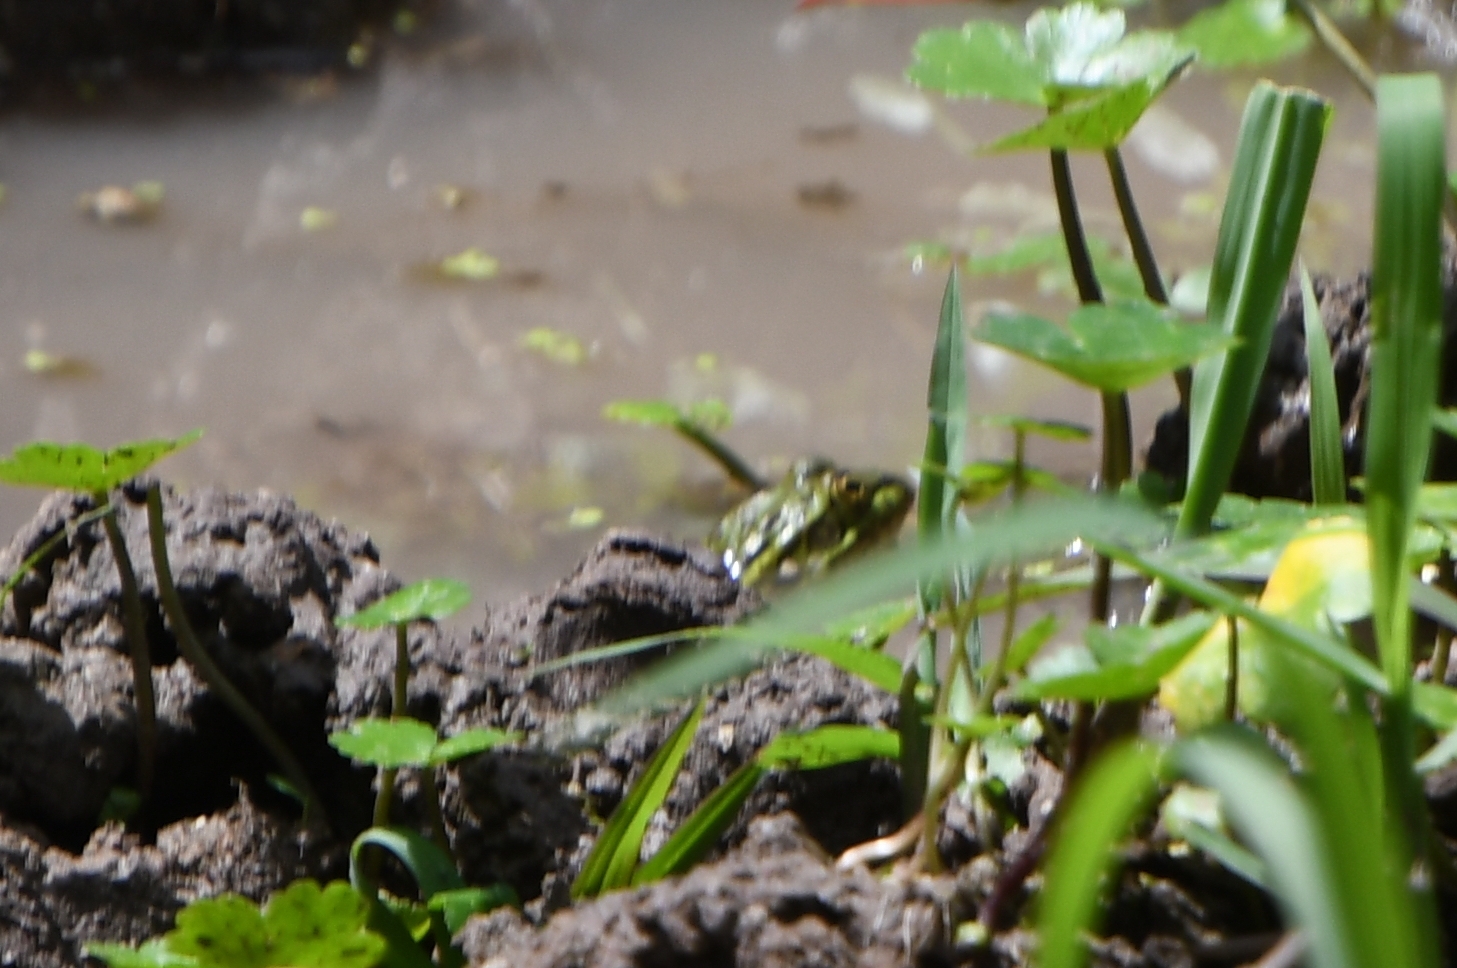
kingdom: Animalia
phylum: Chordata
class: Amphibia
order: Anura
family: Ranidae
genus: Lithobates
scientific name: Lithobates chiricahuensis
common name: Chiricahua leopard frog
